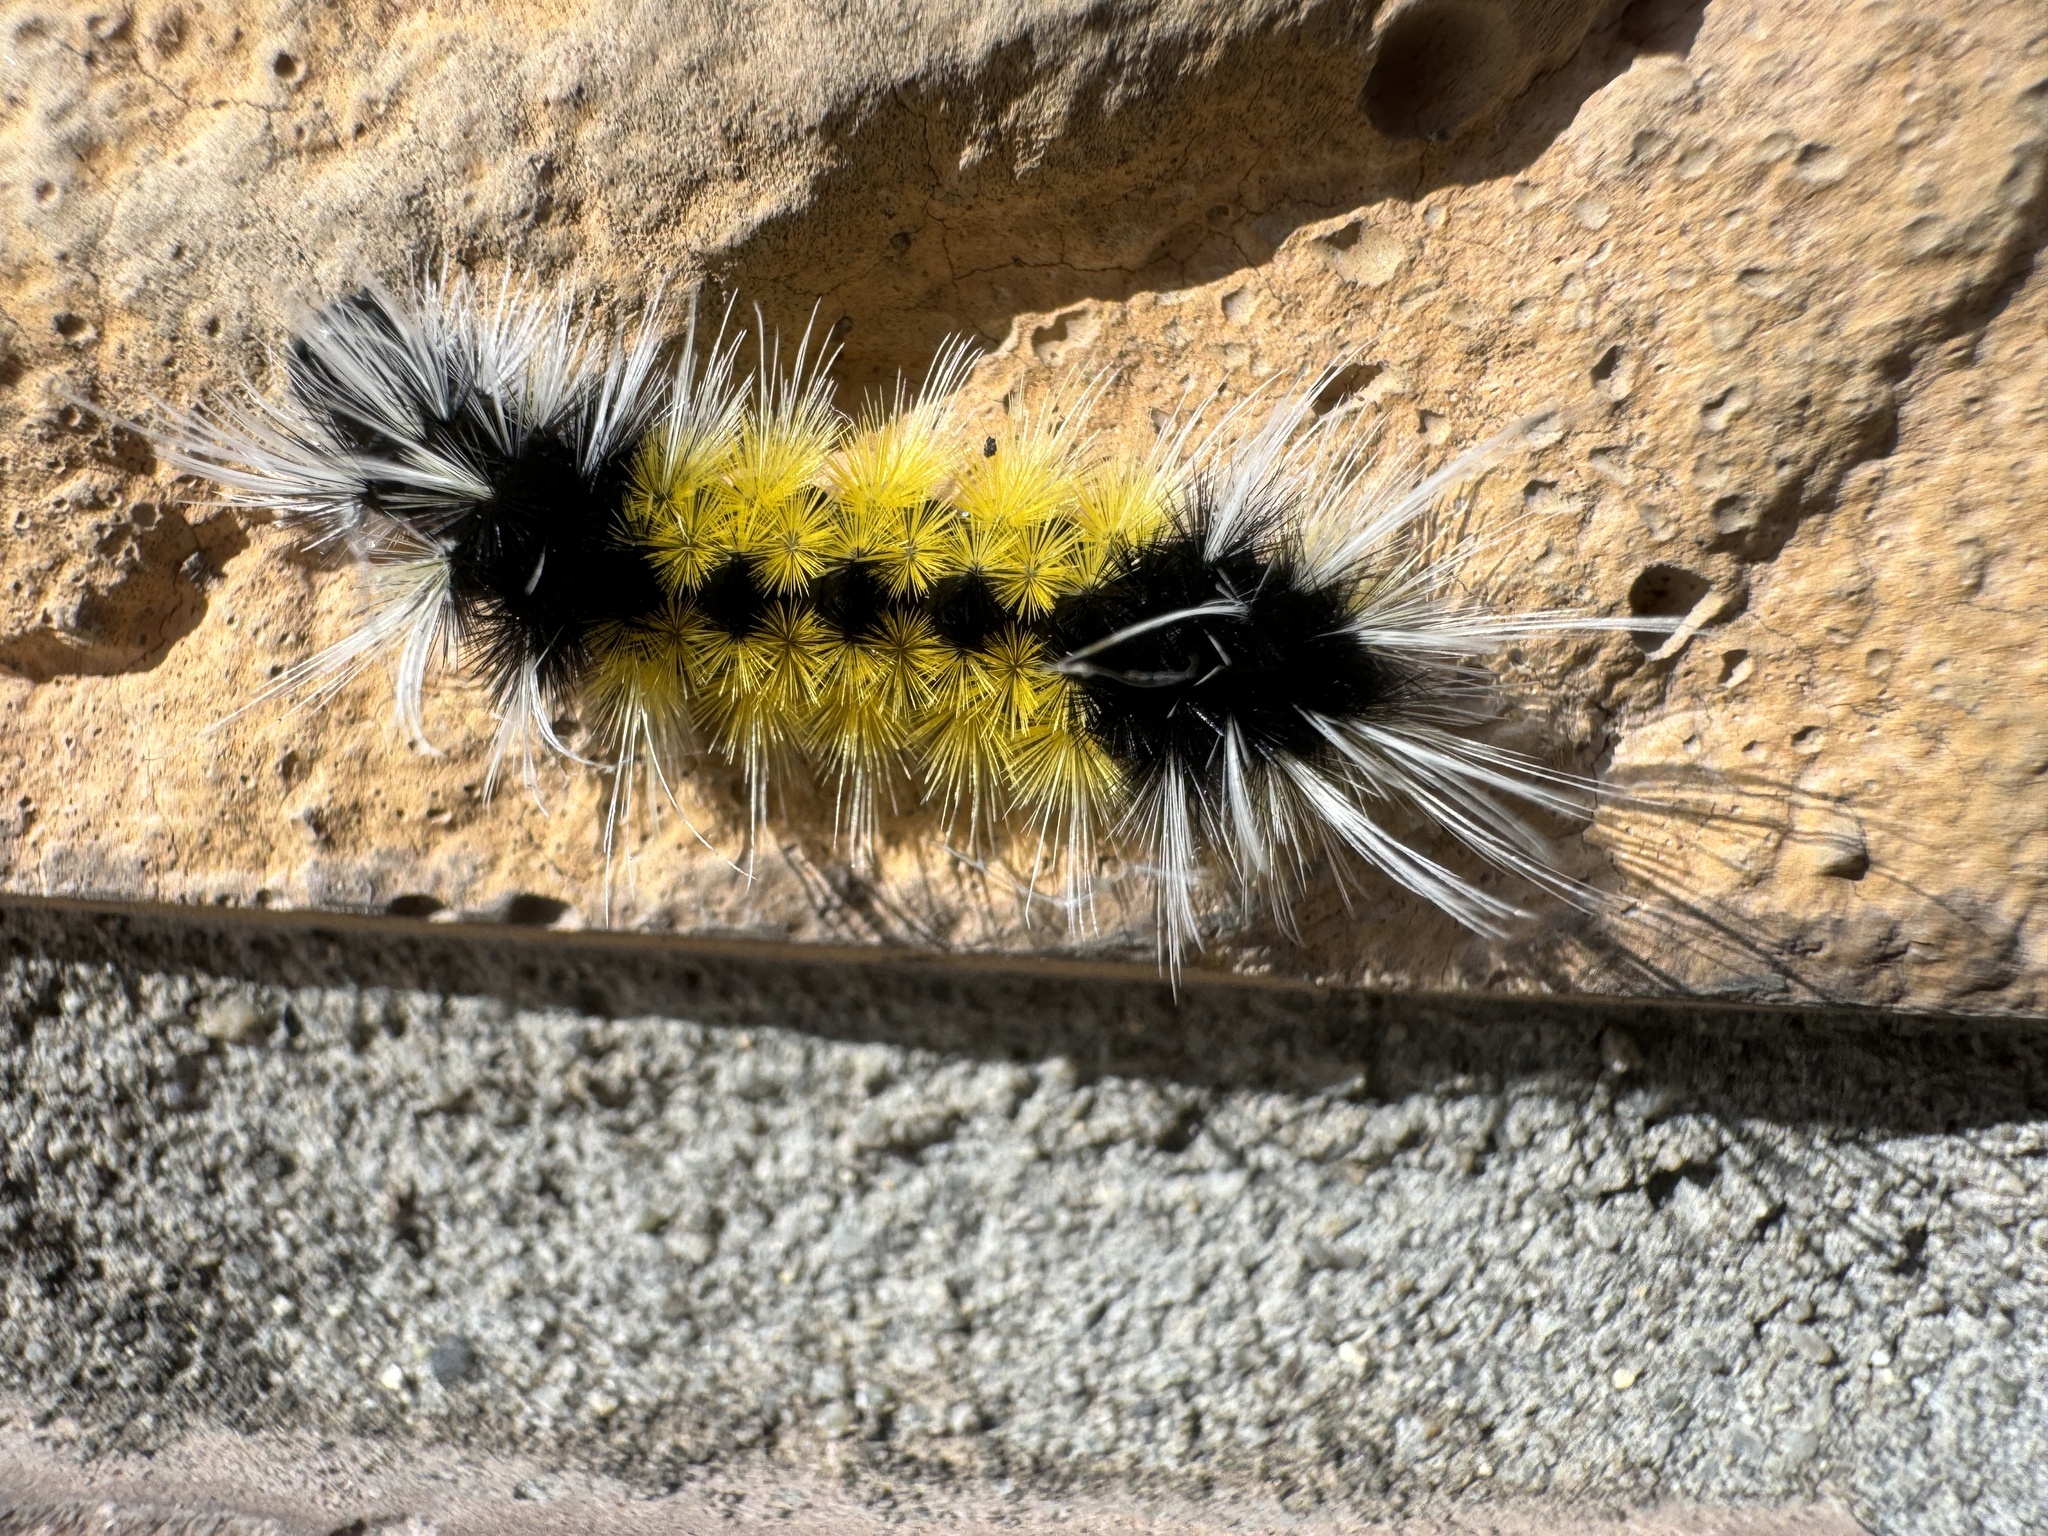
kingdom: Animalia
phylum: Arthropoda
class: Insecta
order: Lepidoptera
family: Erebidae
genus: Lophocampa
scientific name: Lophocampa maculata
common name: Spotted tussock moth
